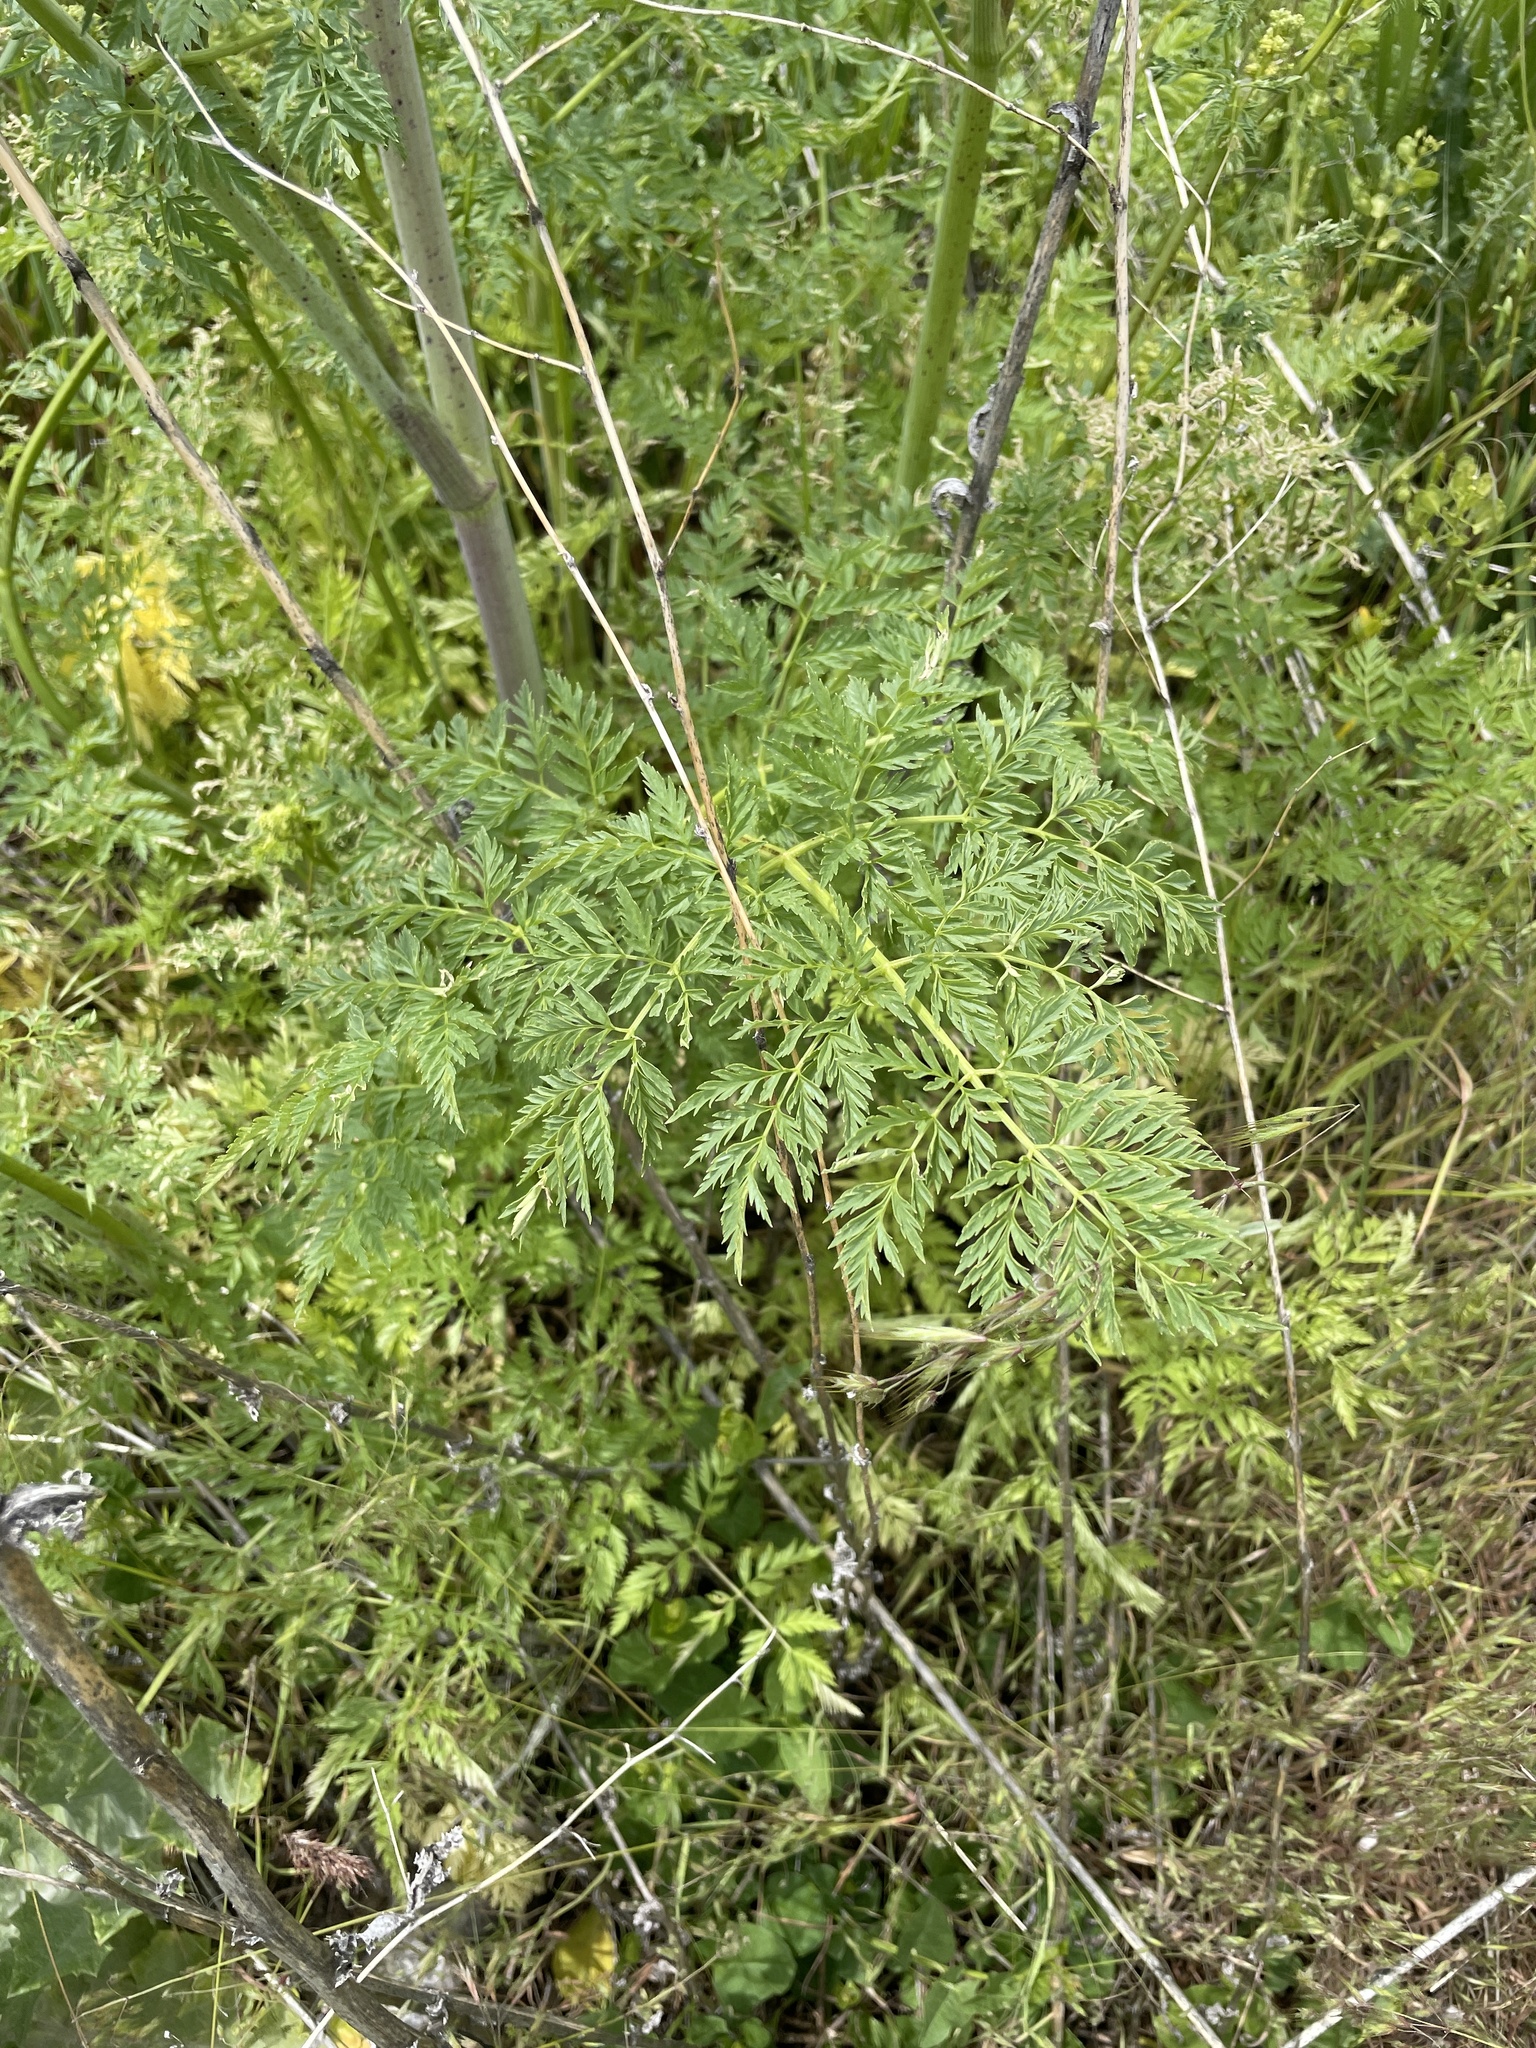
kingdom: Plantae
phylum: Tracheophyta
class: Magnoliopsida
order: Apiales
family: Apiaceae
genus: Conium
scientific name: Conium maculatum
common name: Hemlock
